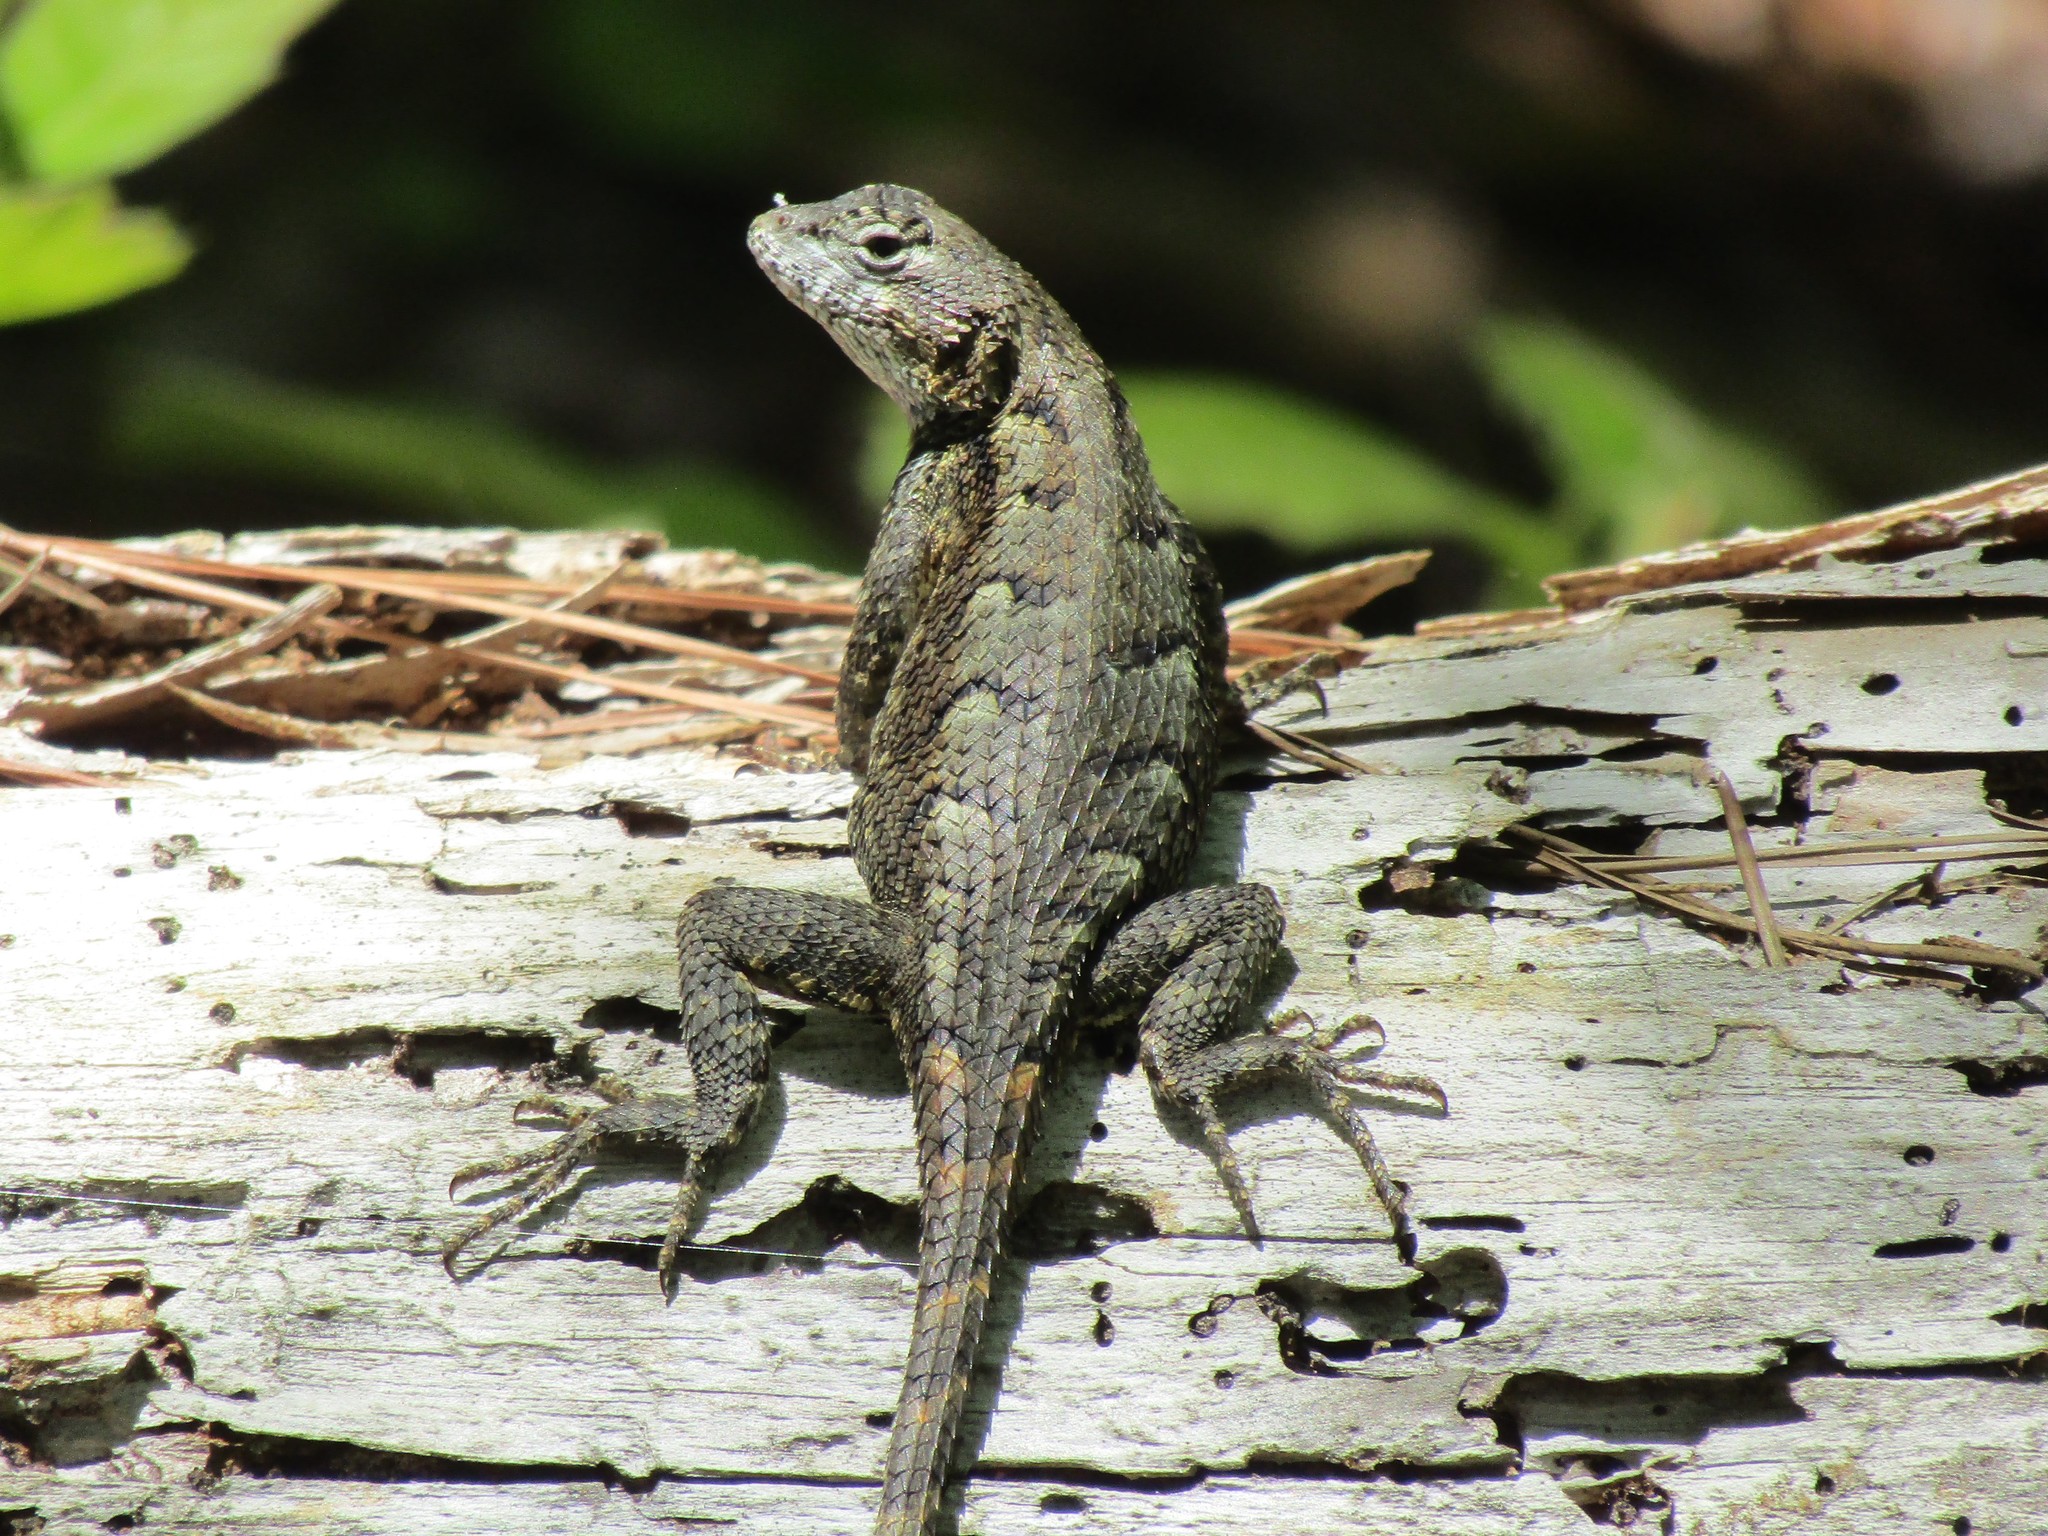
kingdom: Animalia
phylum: Chordata
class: Squamata
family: Phrynosomatidae
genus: Sceloporus
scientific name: Sceloporus undulatus
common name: Eastern fence lizard
